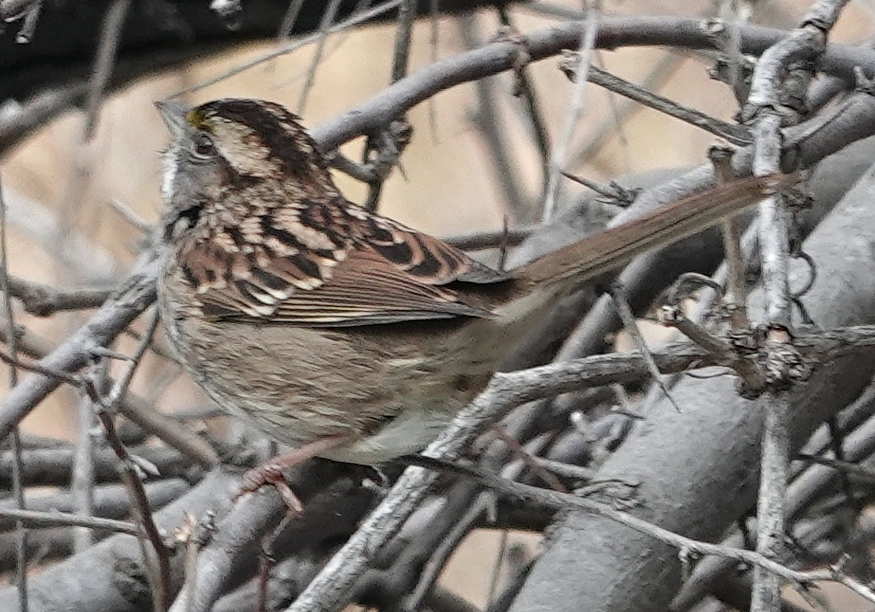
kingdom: Animalia
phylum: Chordata
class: Aves
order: Passeriformes
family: Passerellidae
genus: Zonotrichia
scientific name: Zonotrichia albicollis
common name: White-throated sparrow
